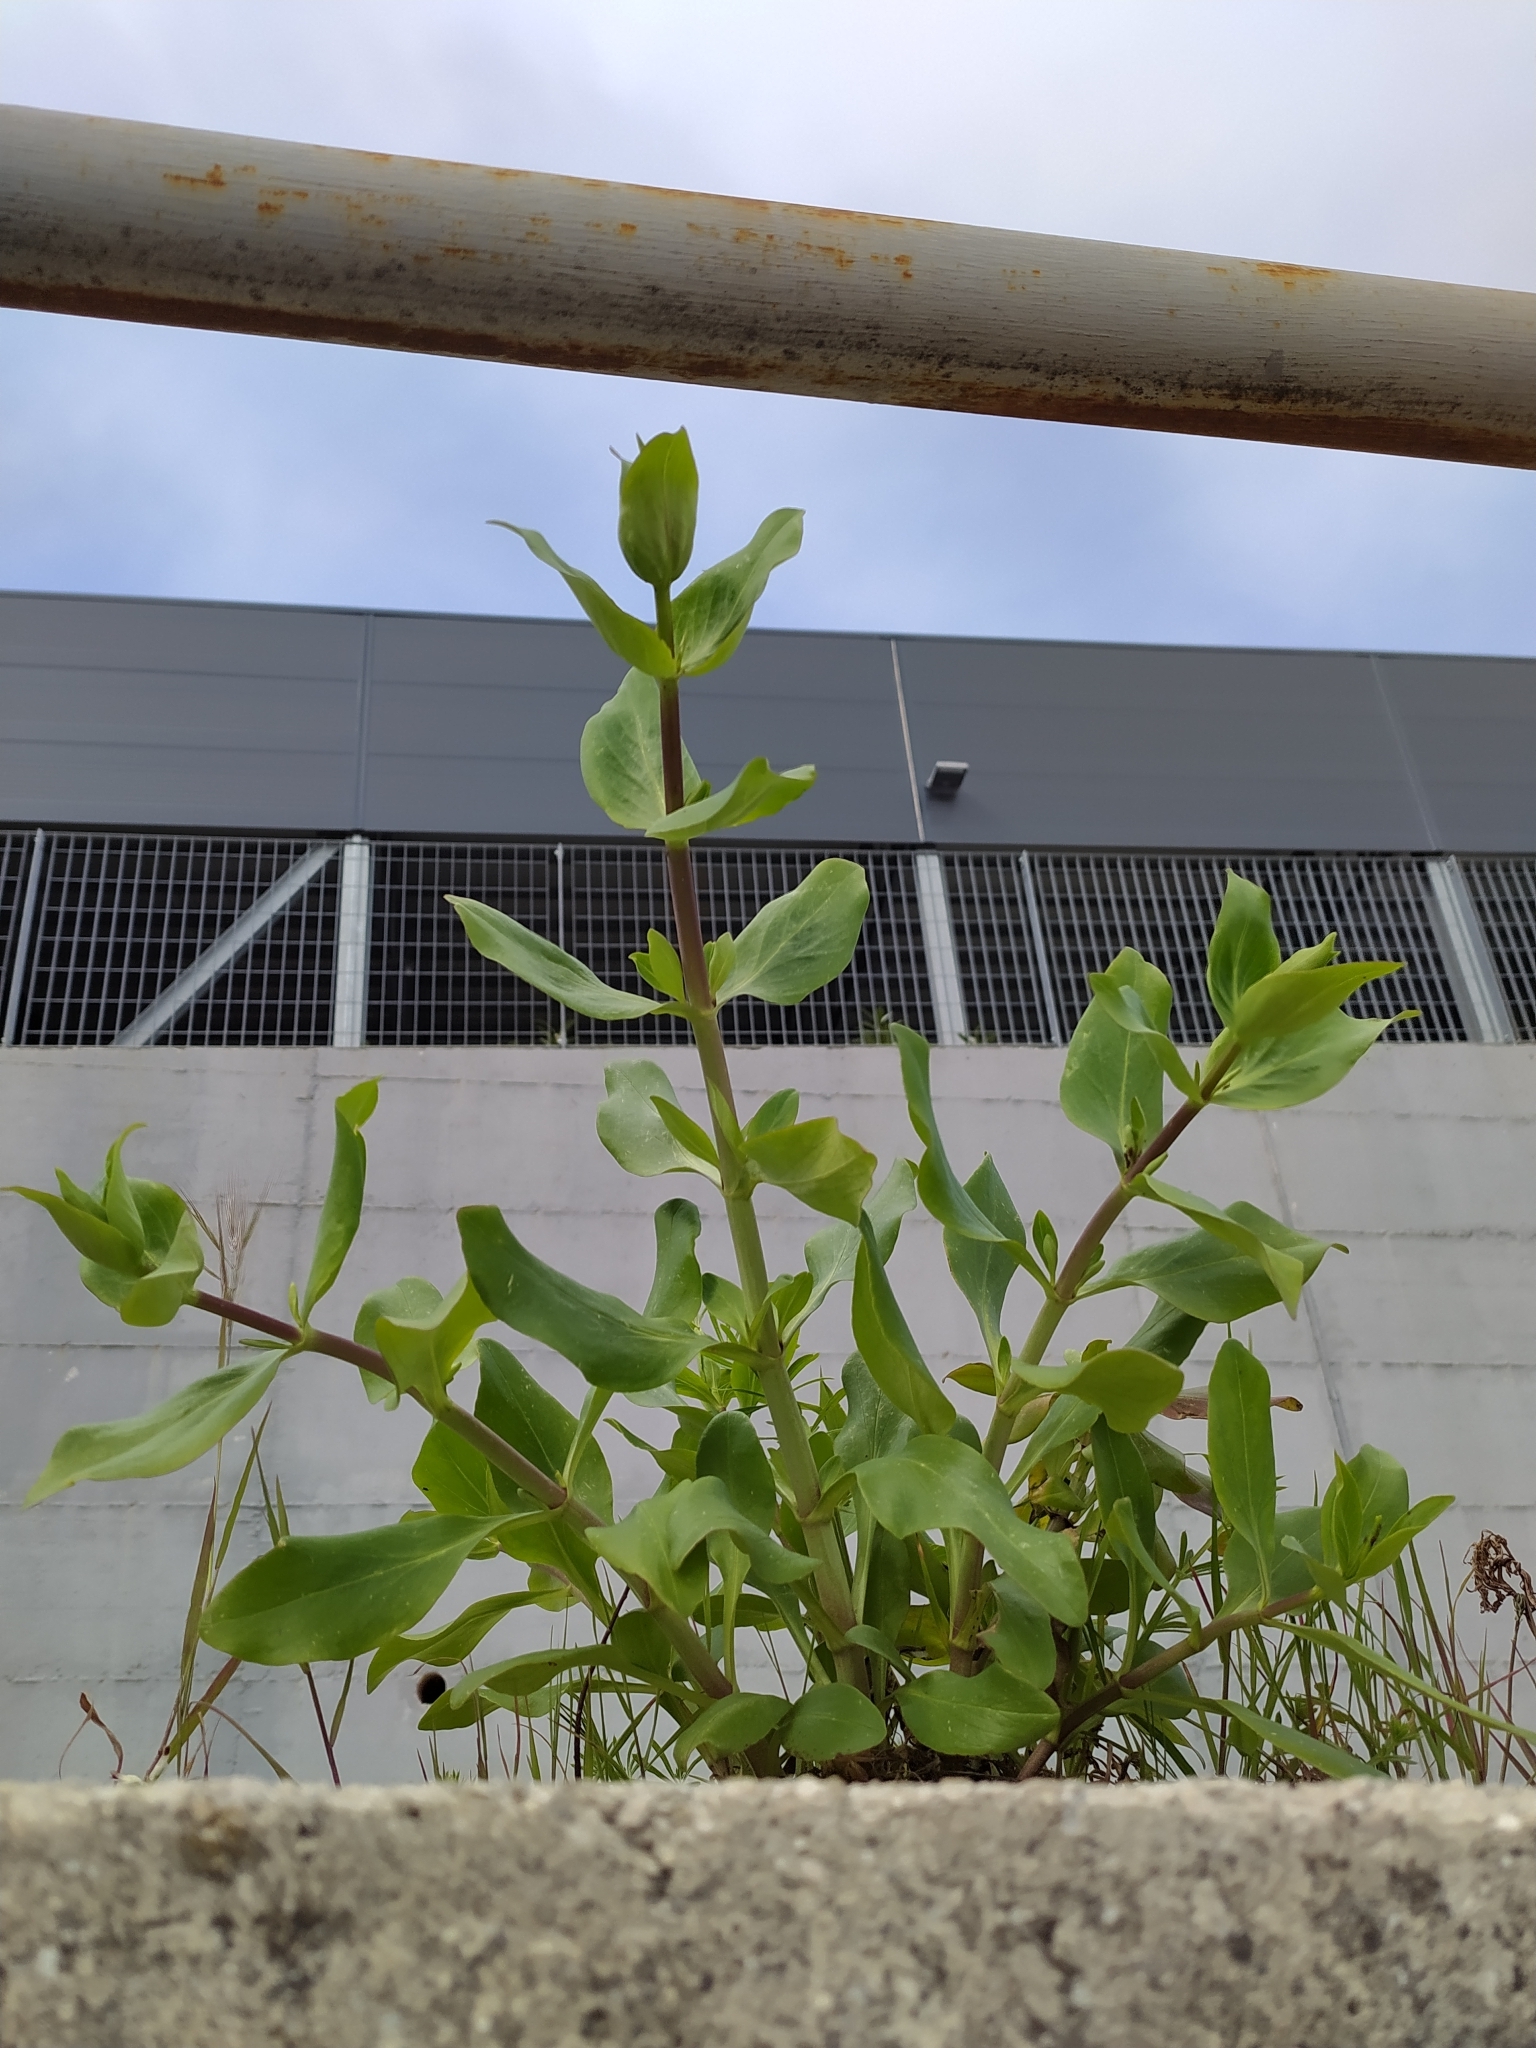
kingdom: Plantae
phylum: Tracheophyta
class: Magnoliopsida
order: Dipsacales
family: Caprifoliaceae
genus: Centranthus
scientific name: Centranthus ruber
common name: Red valerian
